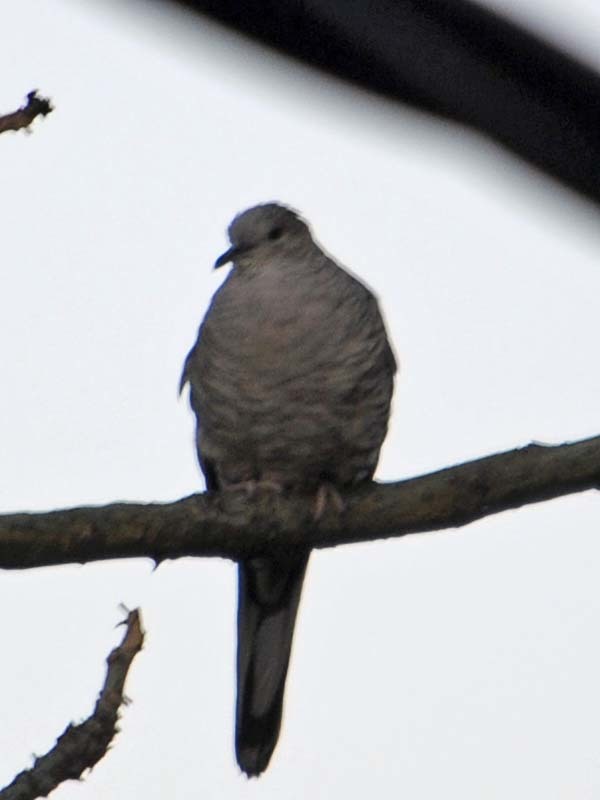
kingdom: Animalia
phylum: Chordata
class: Aves
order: Columbiformes
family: Columbidae
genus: Columbina
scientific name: Columbina inca
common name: Inca dove
